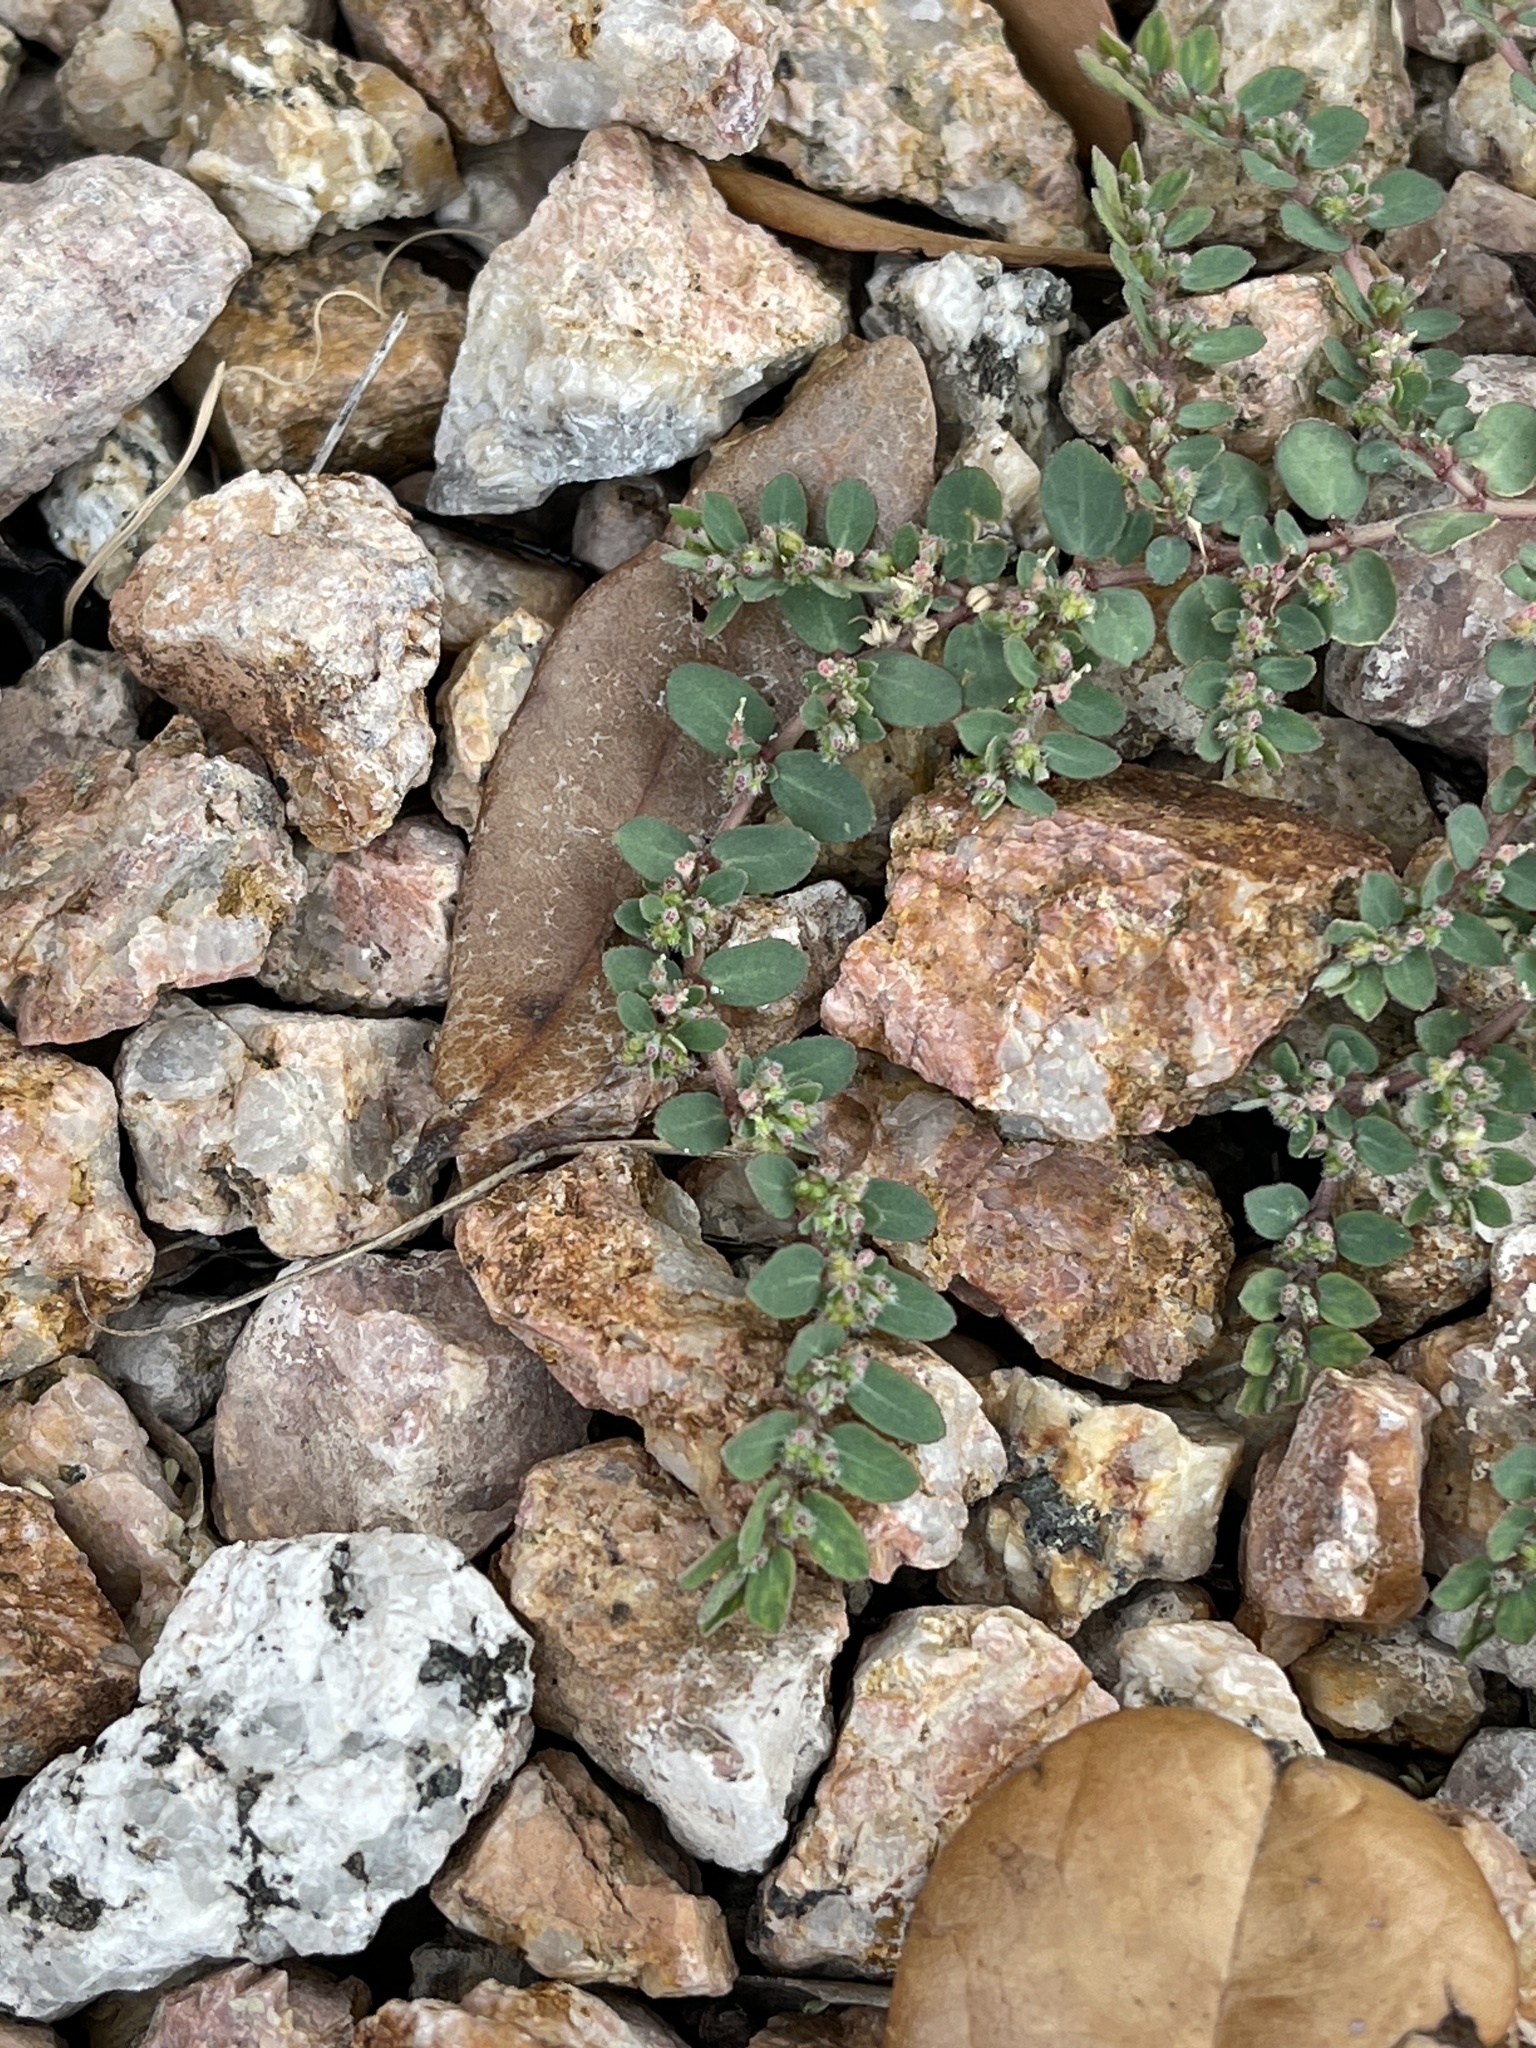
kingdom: Plantae
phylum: Tracheophyta
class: Magnoliopsida
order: Malpighiales
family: Euphorbiaceae
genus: Euphorbia
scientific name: Euphorbia prostrata
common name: Prostrate sandmat
